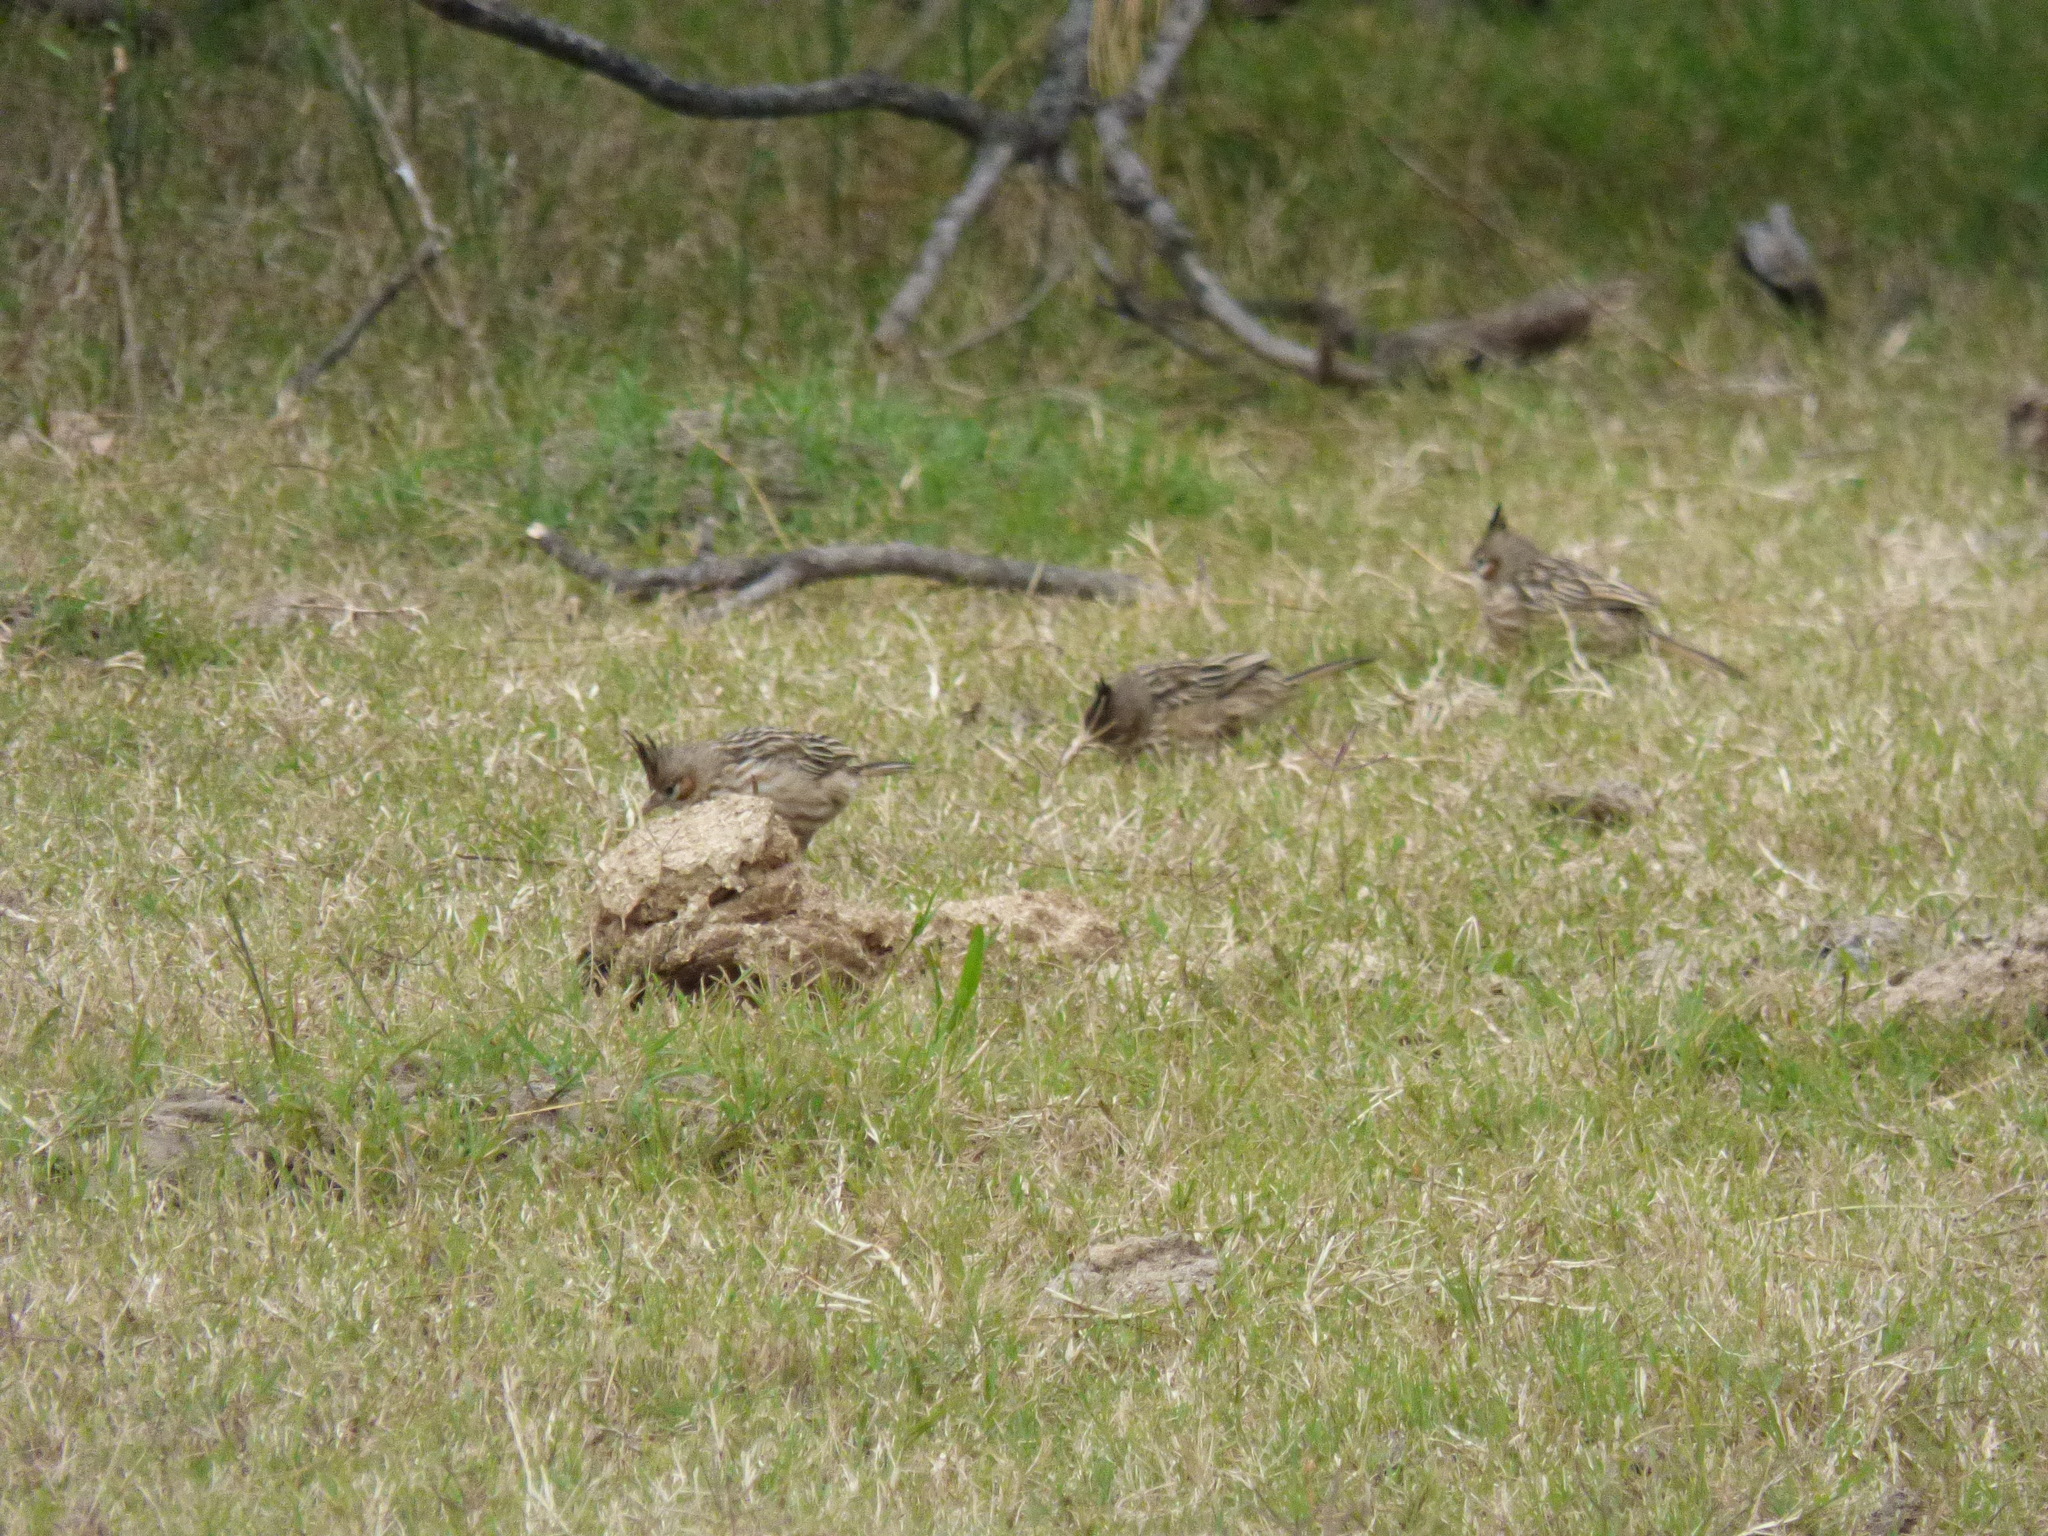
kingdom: Animalia
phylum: Chordata
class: Aves
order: Passeriformes
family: Furnariidae
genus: Coryphistera
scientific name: Coryphistera alaudina
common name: Lark-like brushrunner
